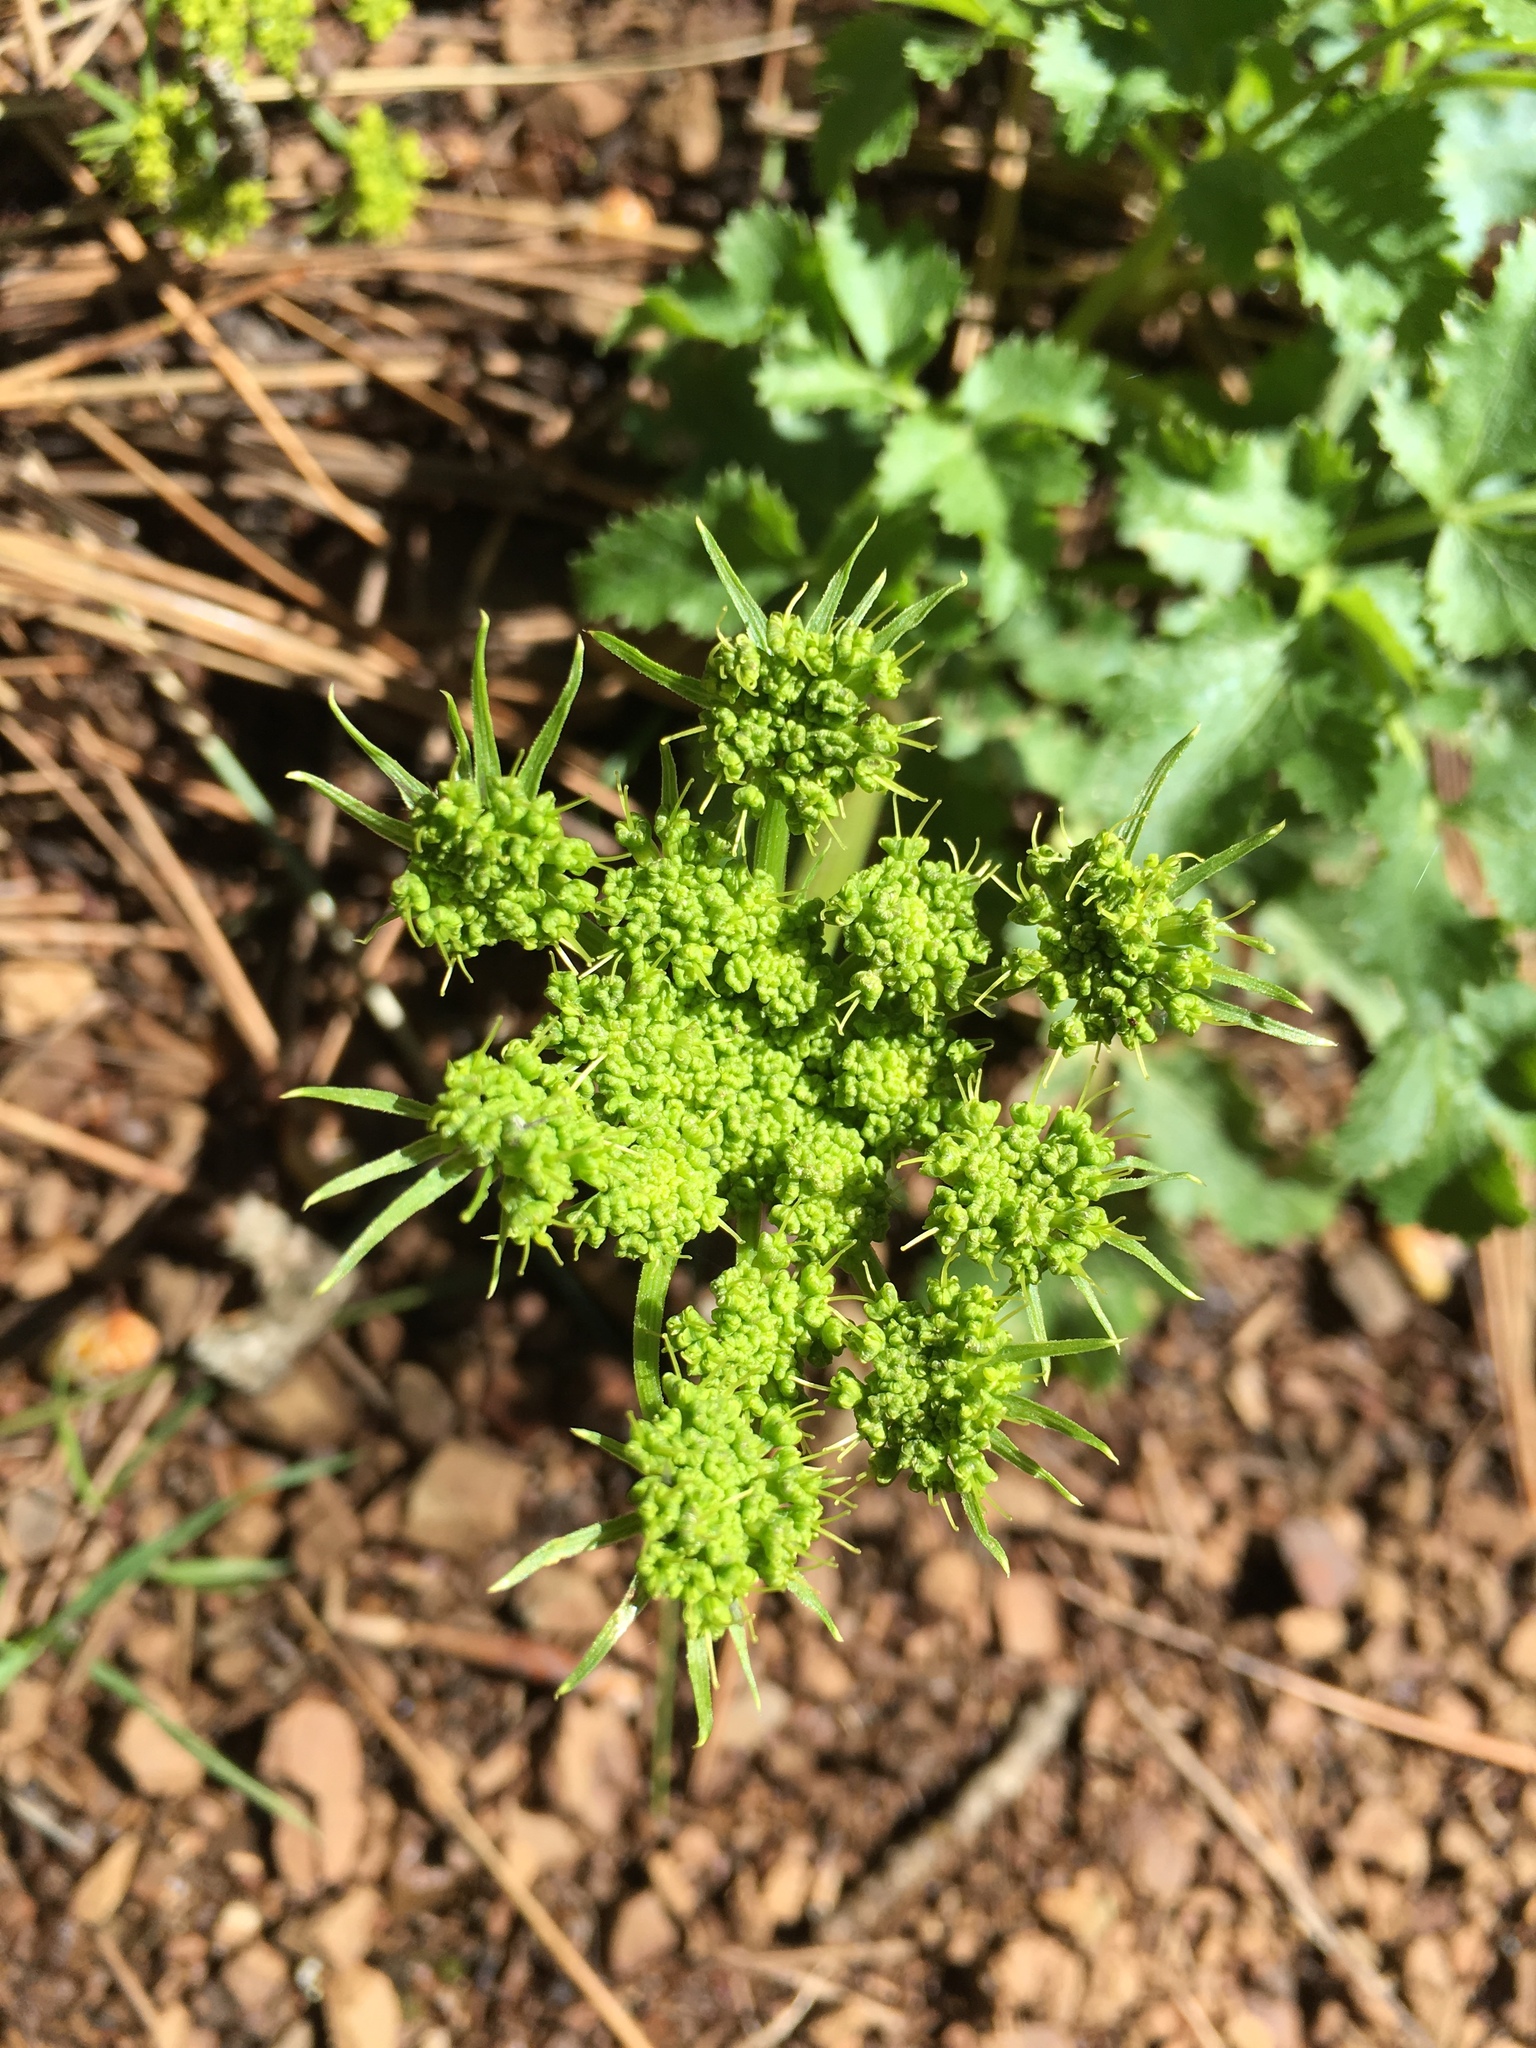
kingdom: Plantae
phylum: Tracheophyta
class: Magnoliopsida
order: Apiales
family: Apiaceae
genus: Tauschia
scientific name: Tauschia hartwegii
